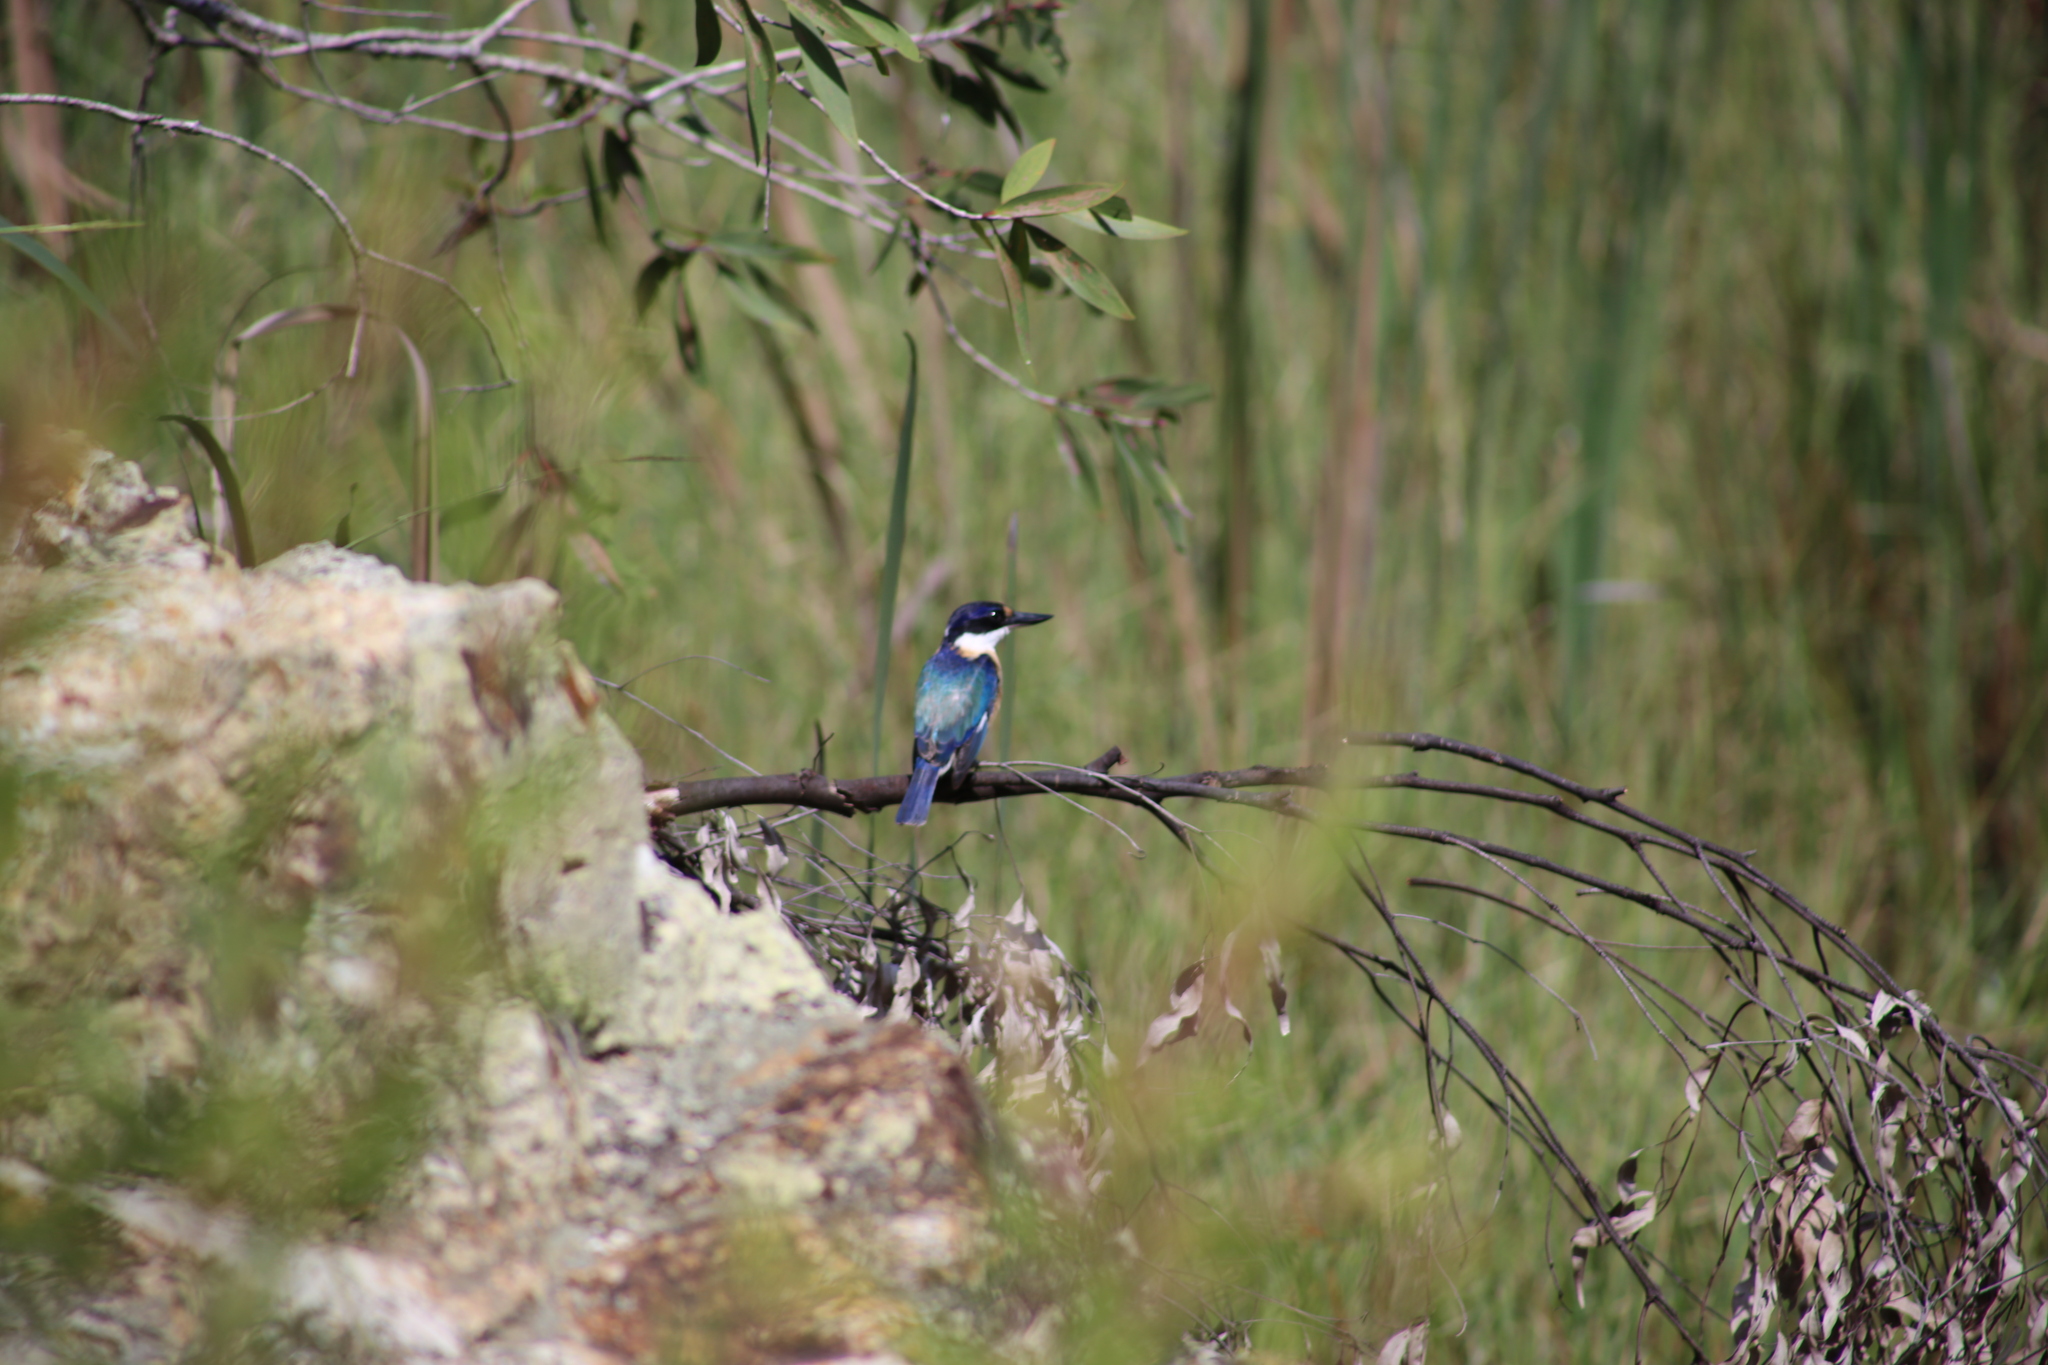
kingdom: Animalia
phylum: Chordata
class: Aves
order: Coraciiformes
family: Alcedinidae
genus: Todiramphus
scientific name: Todiramphus macleayii
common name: Forest kingfisher
